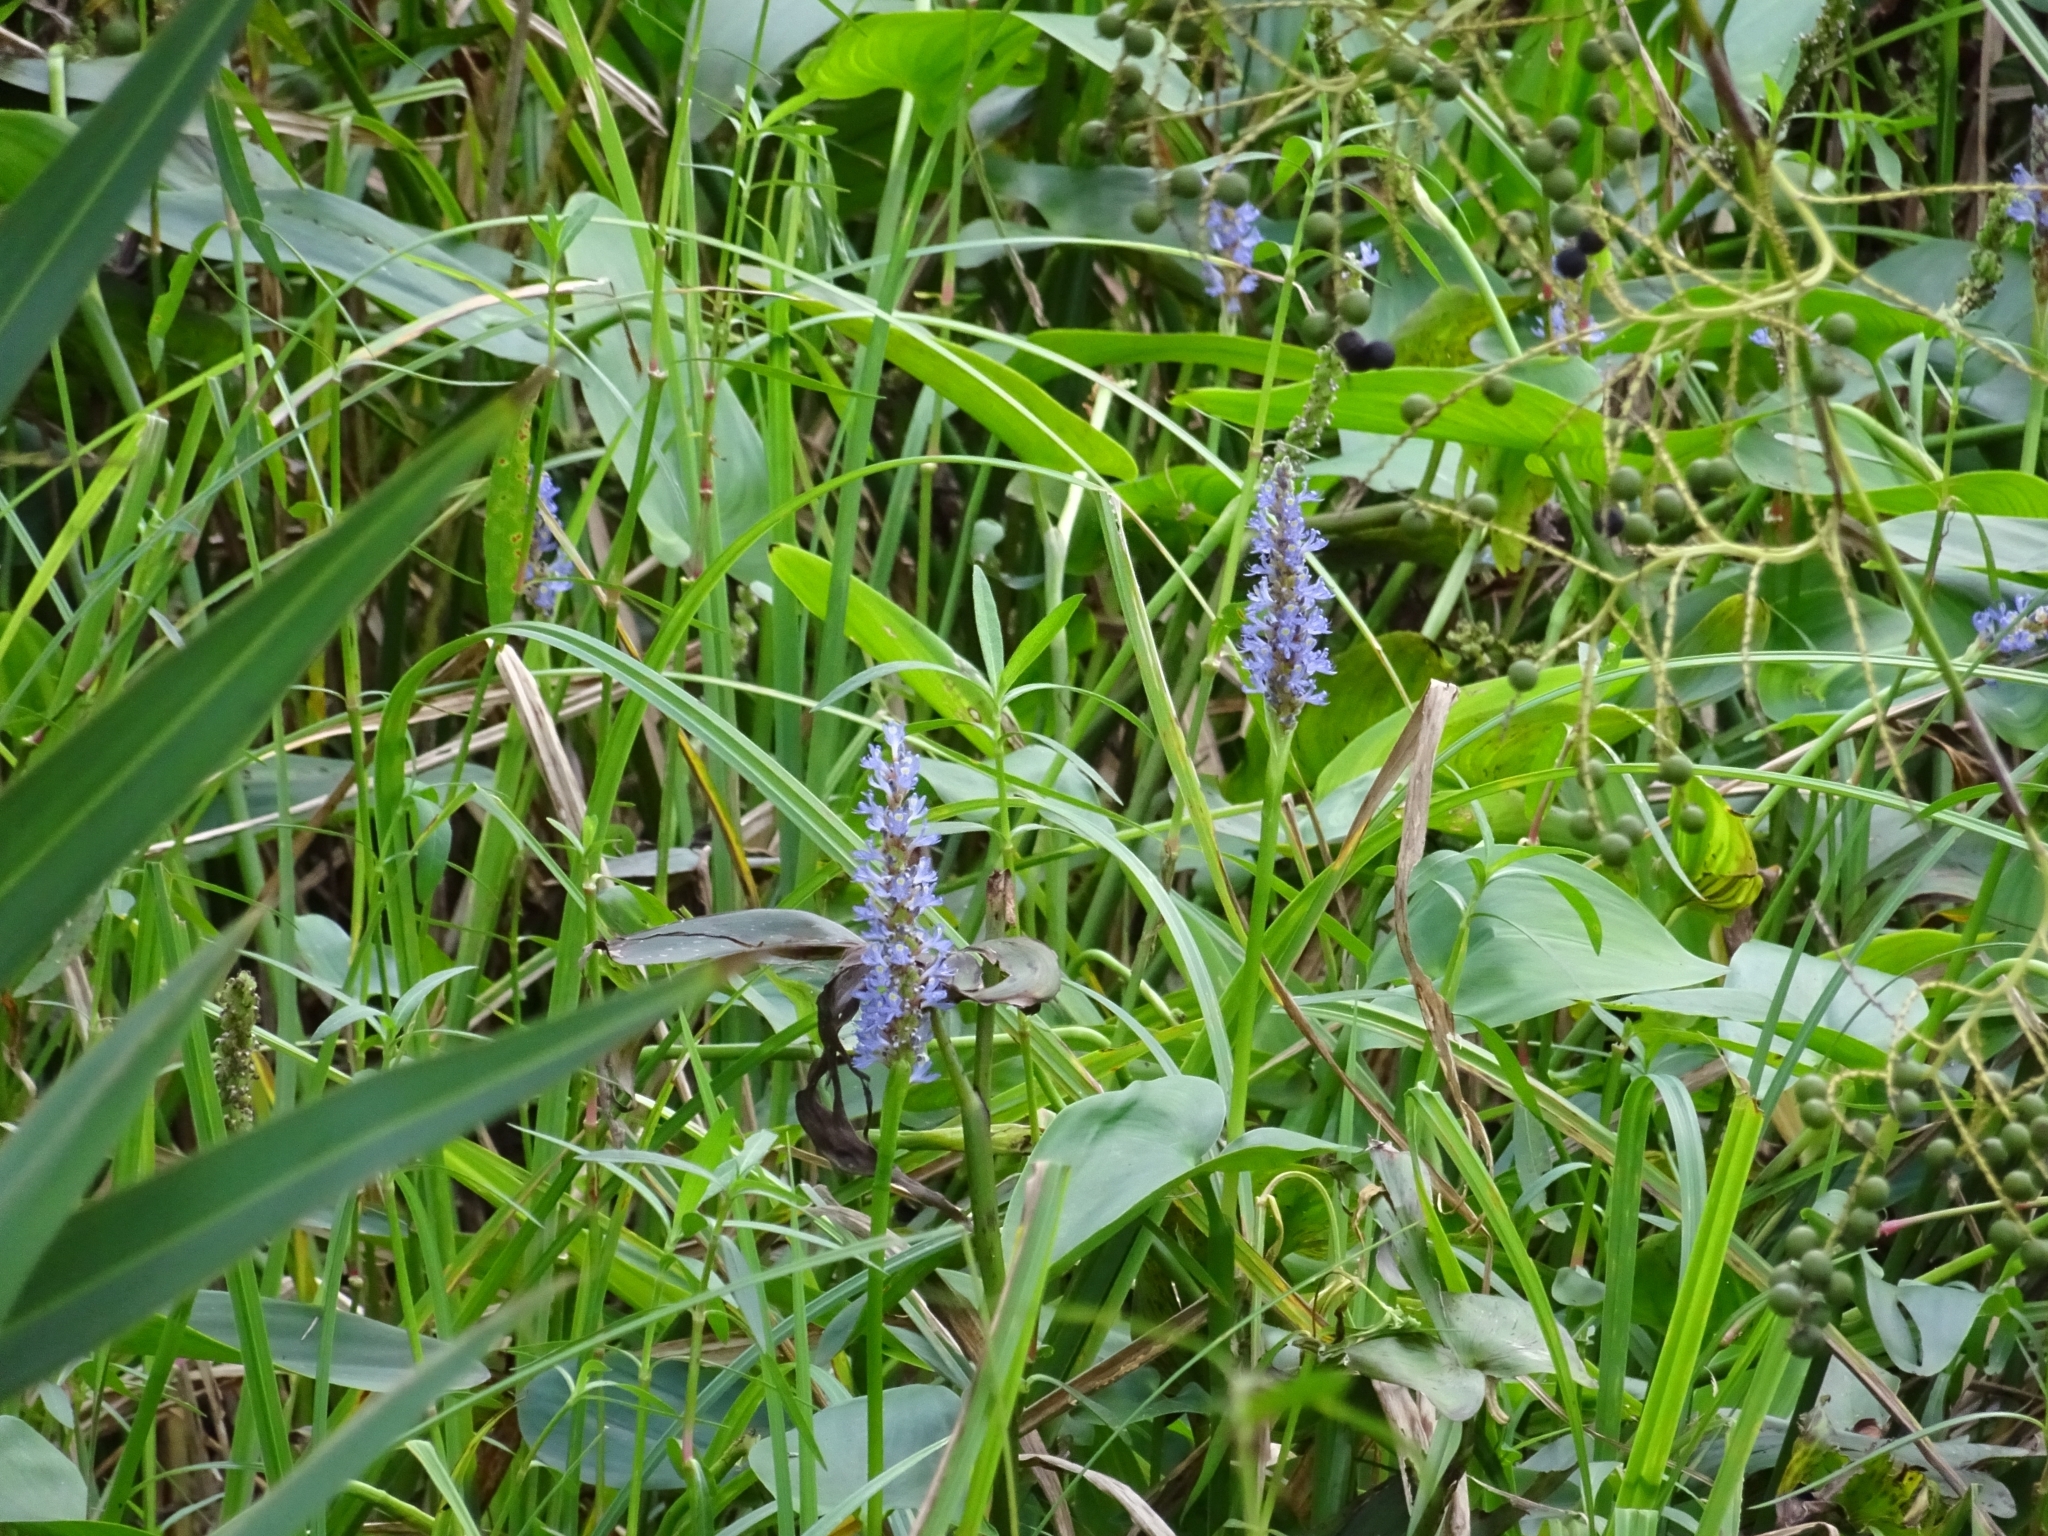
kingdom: Plantae
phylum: Tracheophyta
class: Liliopsida
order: Commelinales
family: Pontederiaceae
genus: Pontederia
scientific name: Pontederia cordata
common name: Pickerelweed
